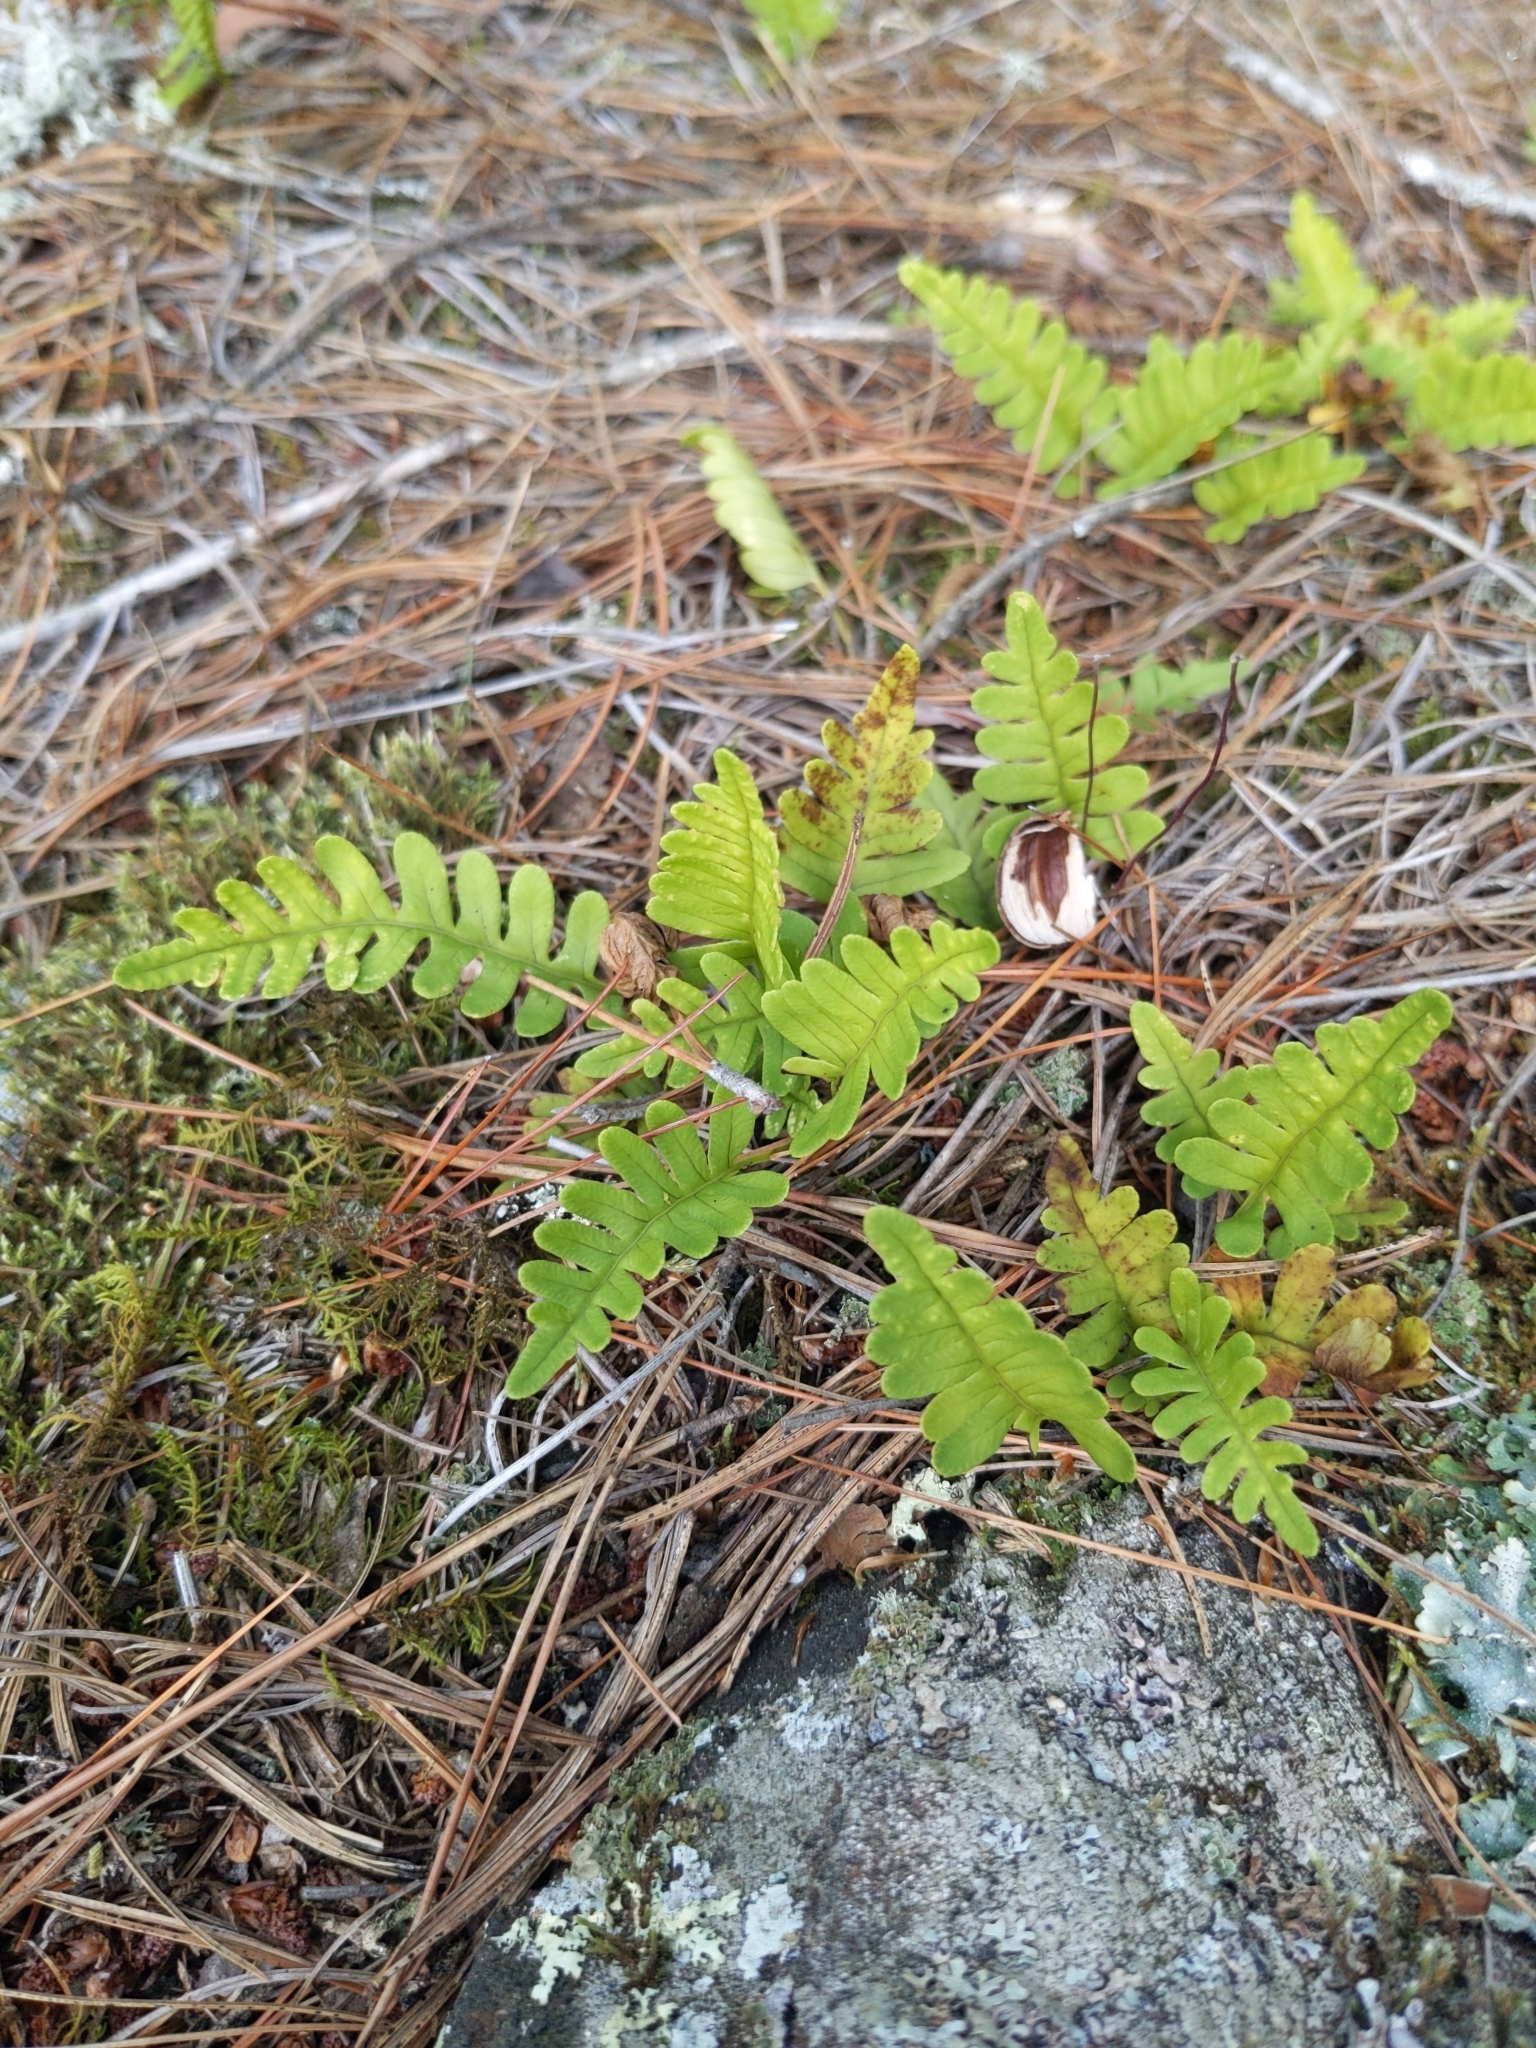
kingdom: Plantae
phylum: Tracheophyta
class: Polypodiopsida
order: Polypodiales
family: Polypodiaceae
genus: Polypodium
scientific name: Polypodium virginianum
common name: American wall fern
